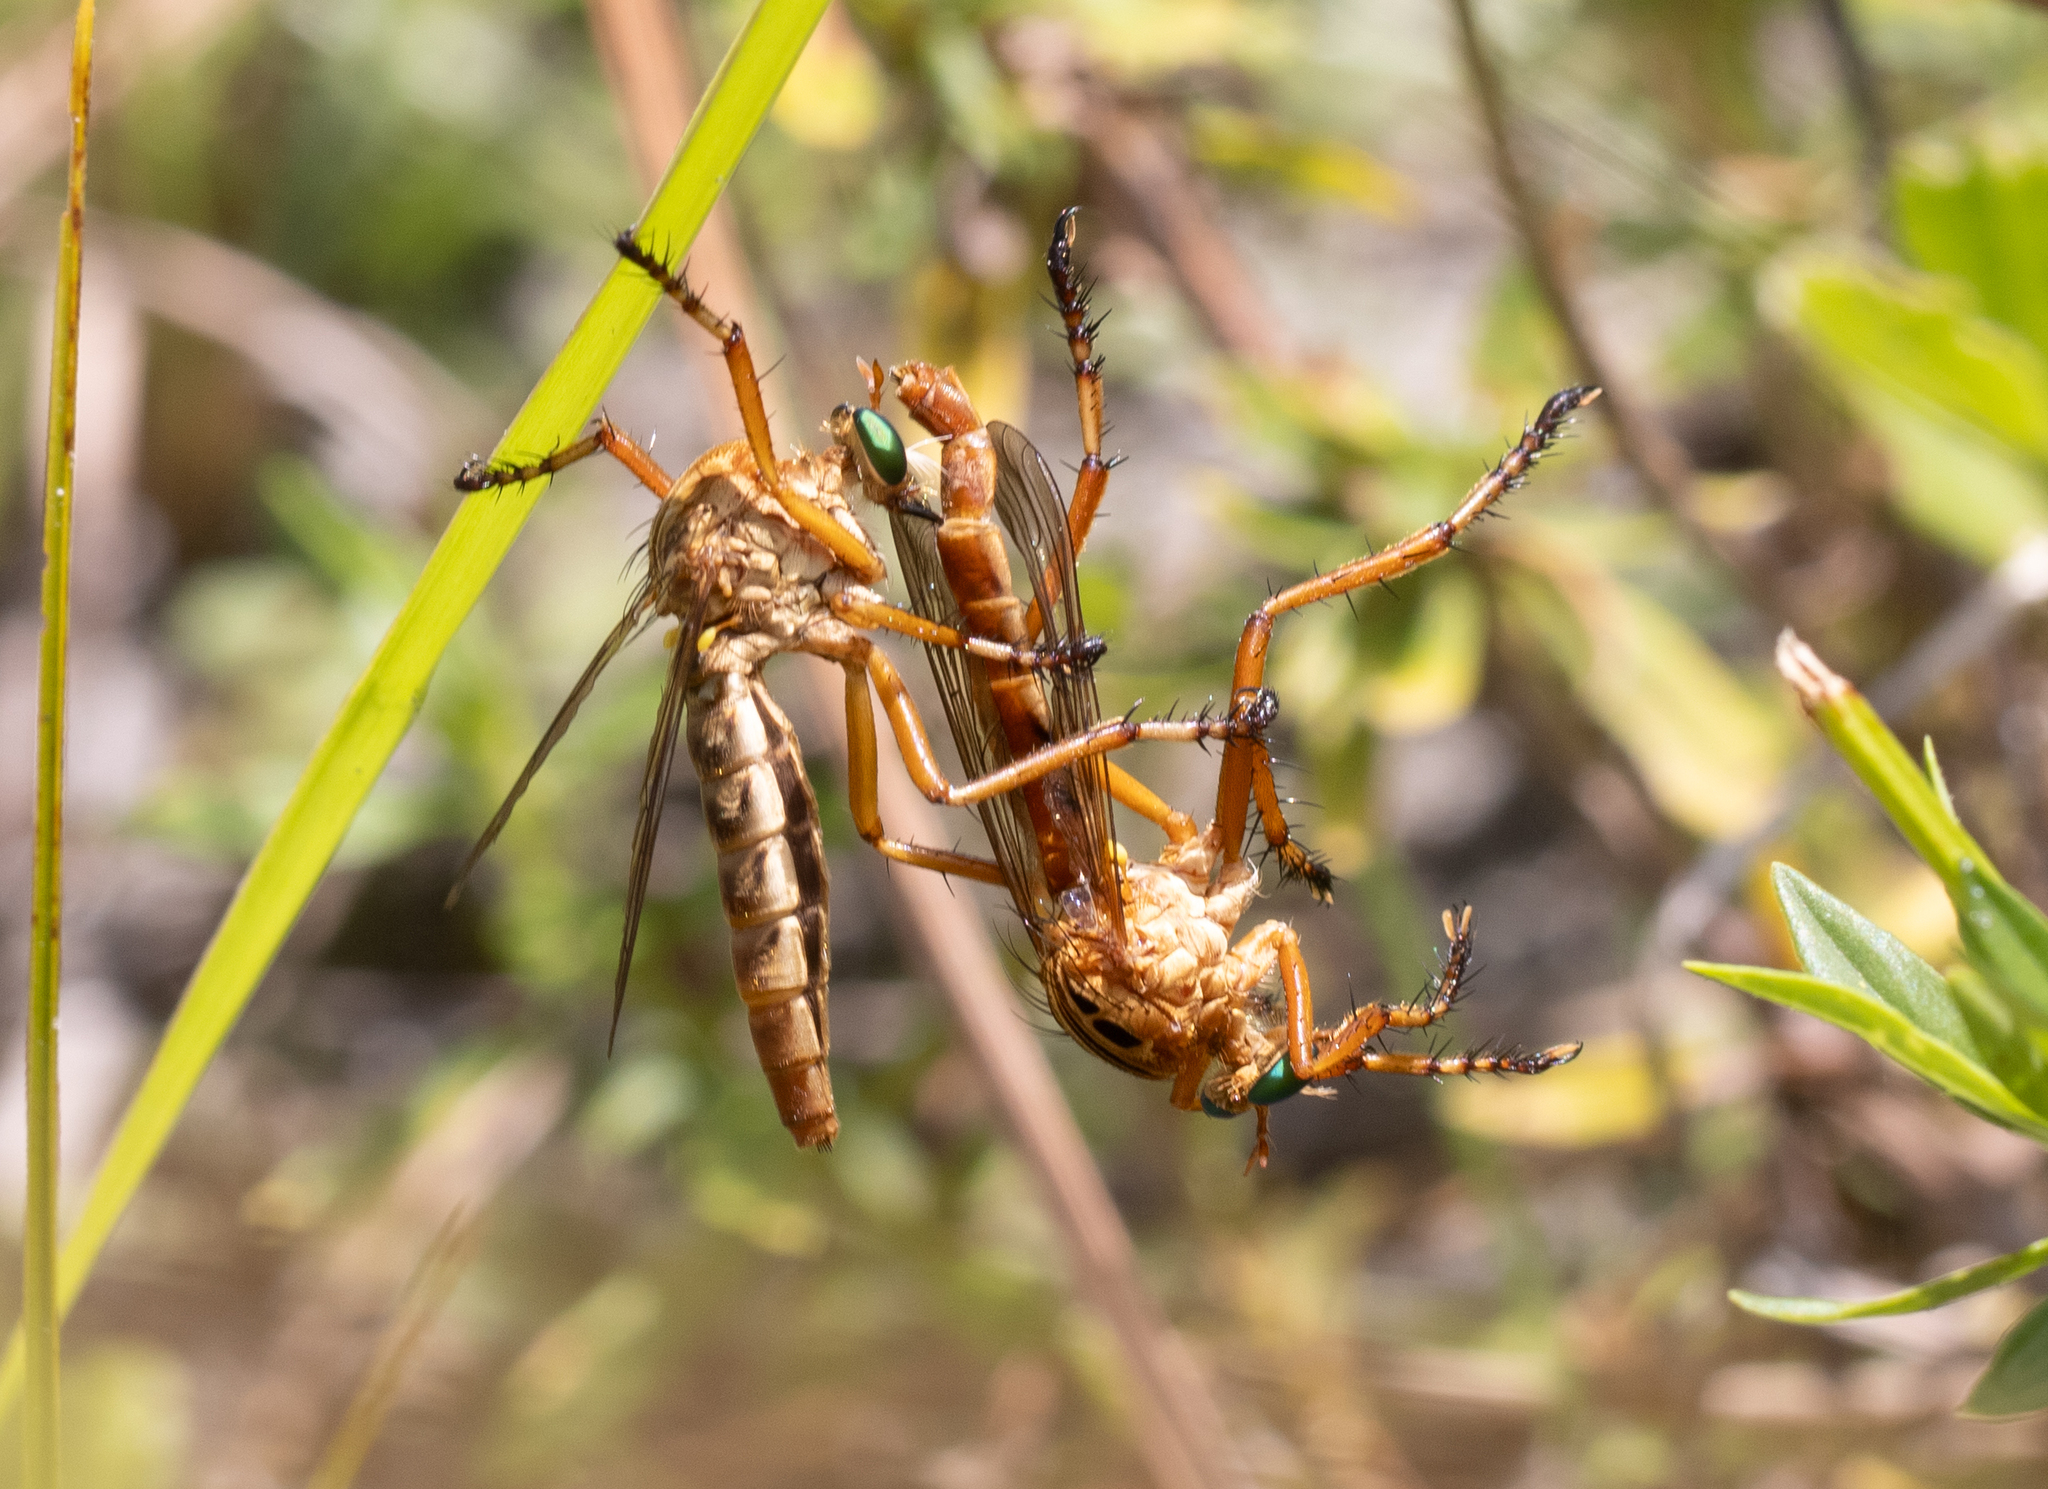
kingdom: Animalia
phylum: Arthropoda
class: Insecta
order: Diptera
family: Asilidae
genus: Diogmites
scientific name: Diogmites esuriens
